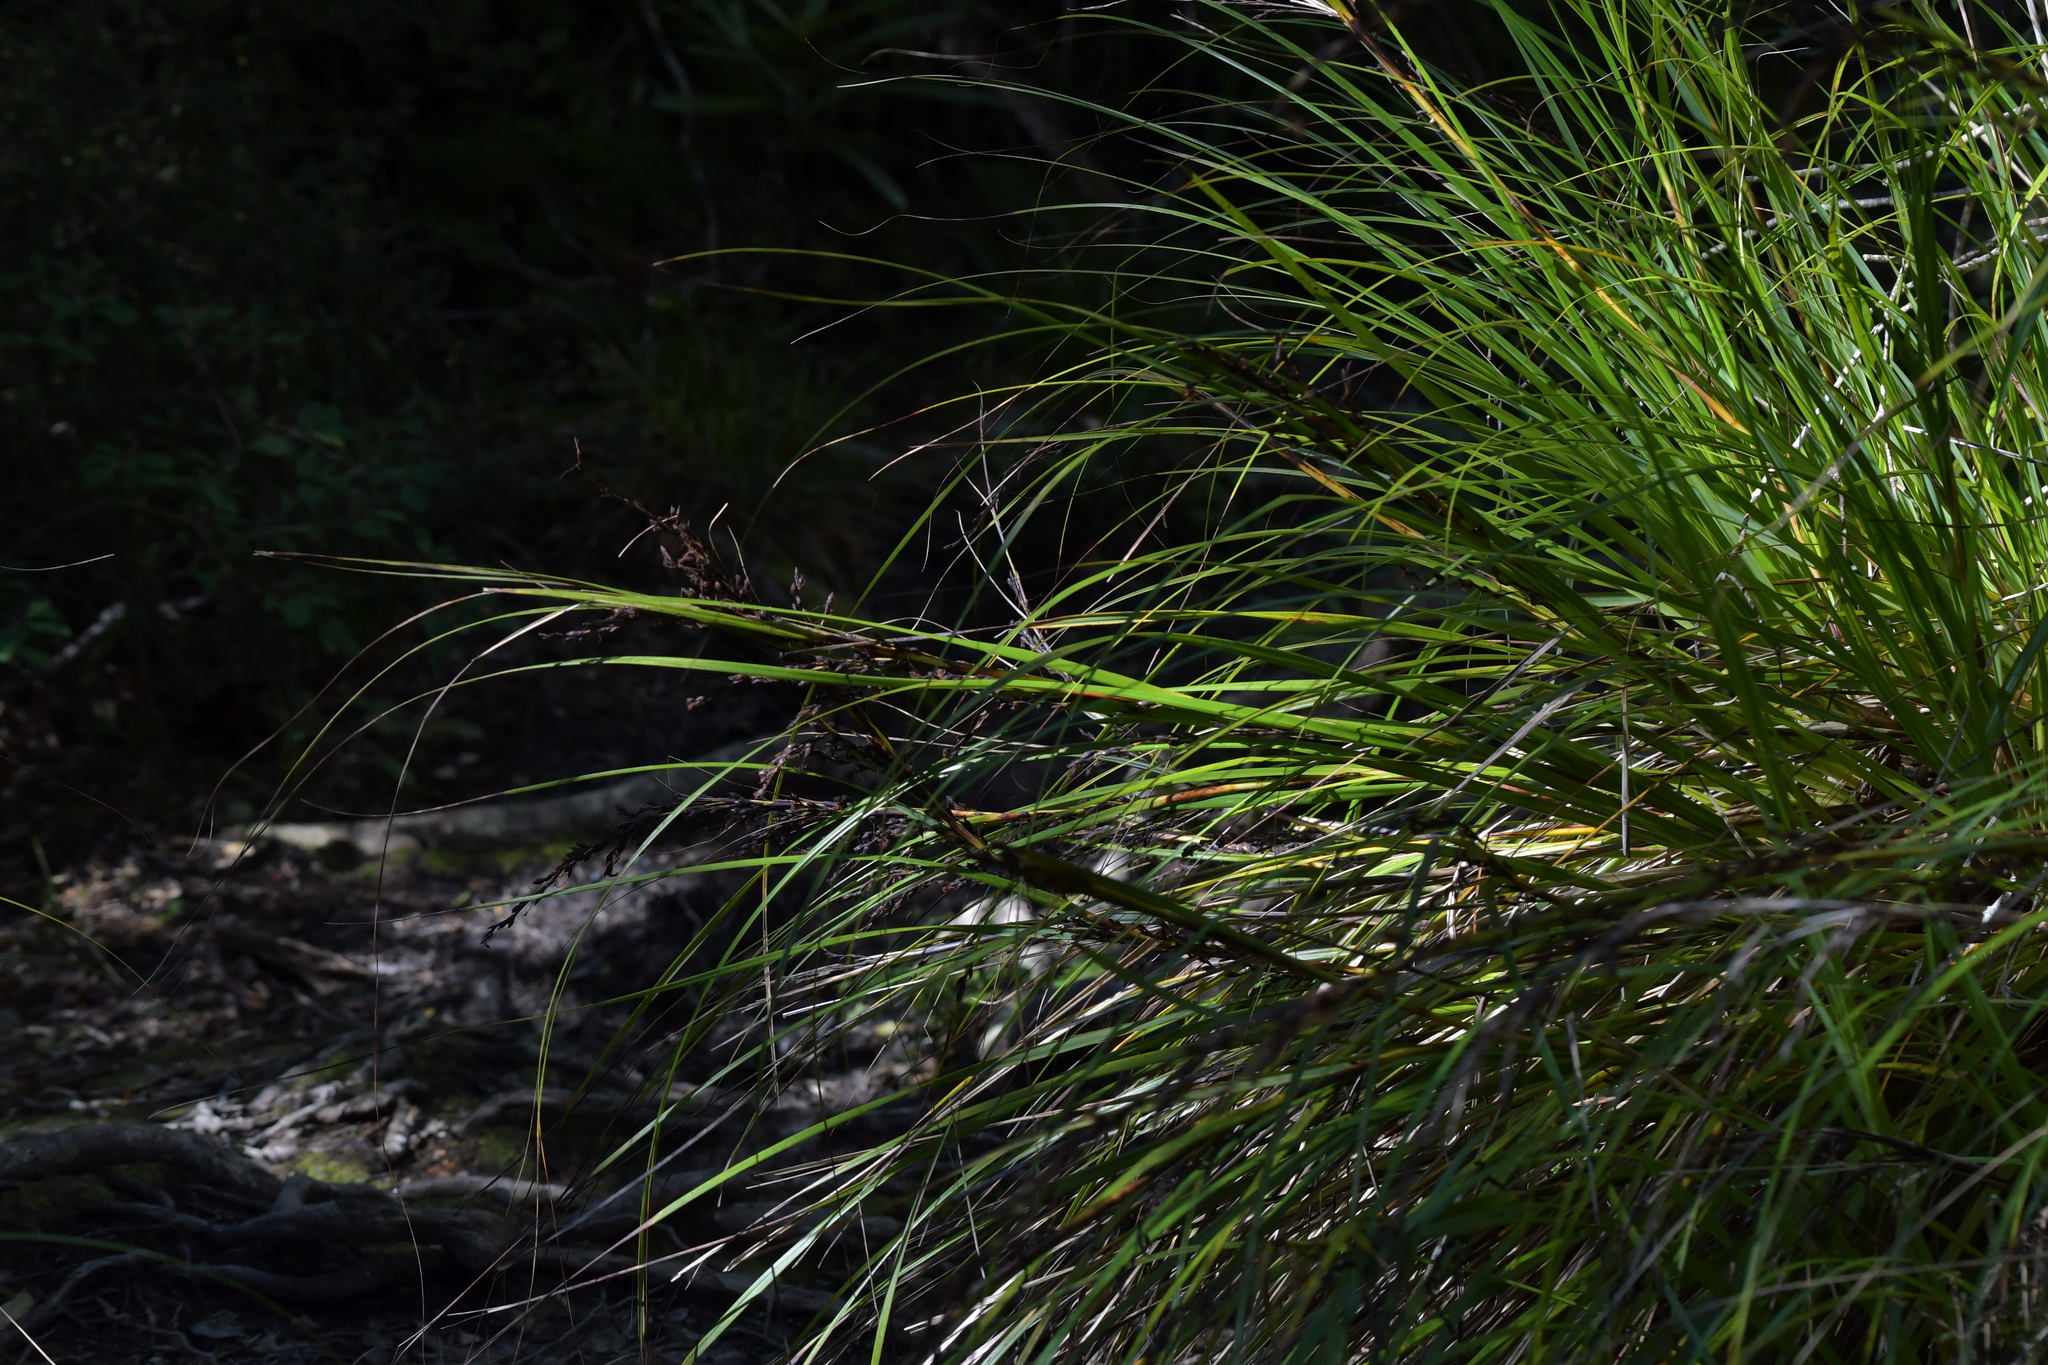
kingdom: Plantae
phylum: Tracheophyta
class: Liliopsida
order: Poales
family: Cyperaceae
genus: Gahnia
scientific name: Gahnia pauciflora
